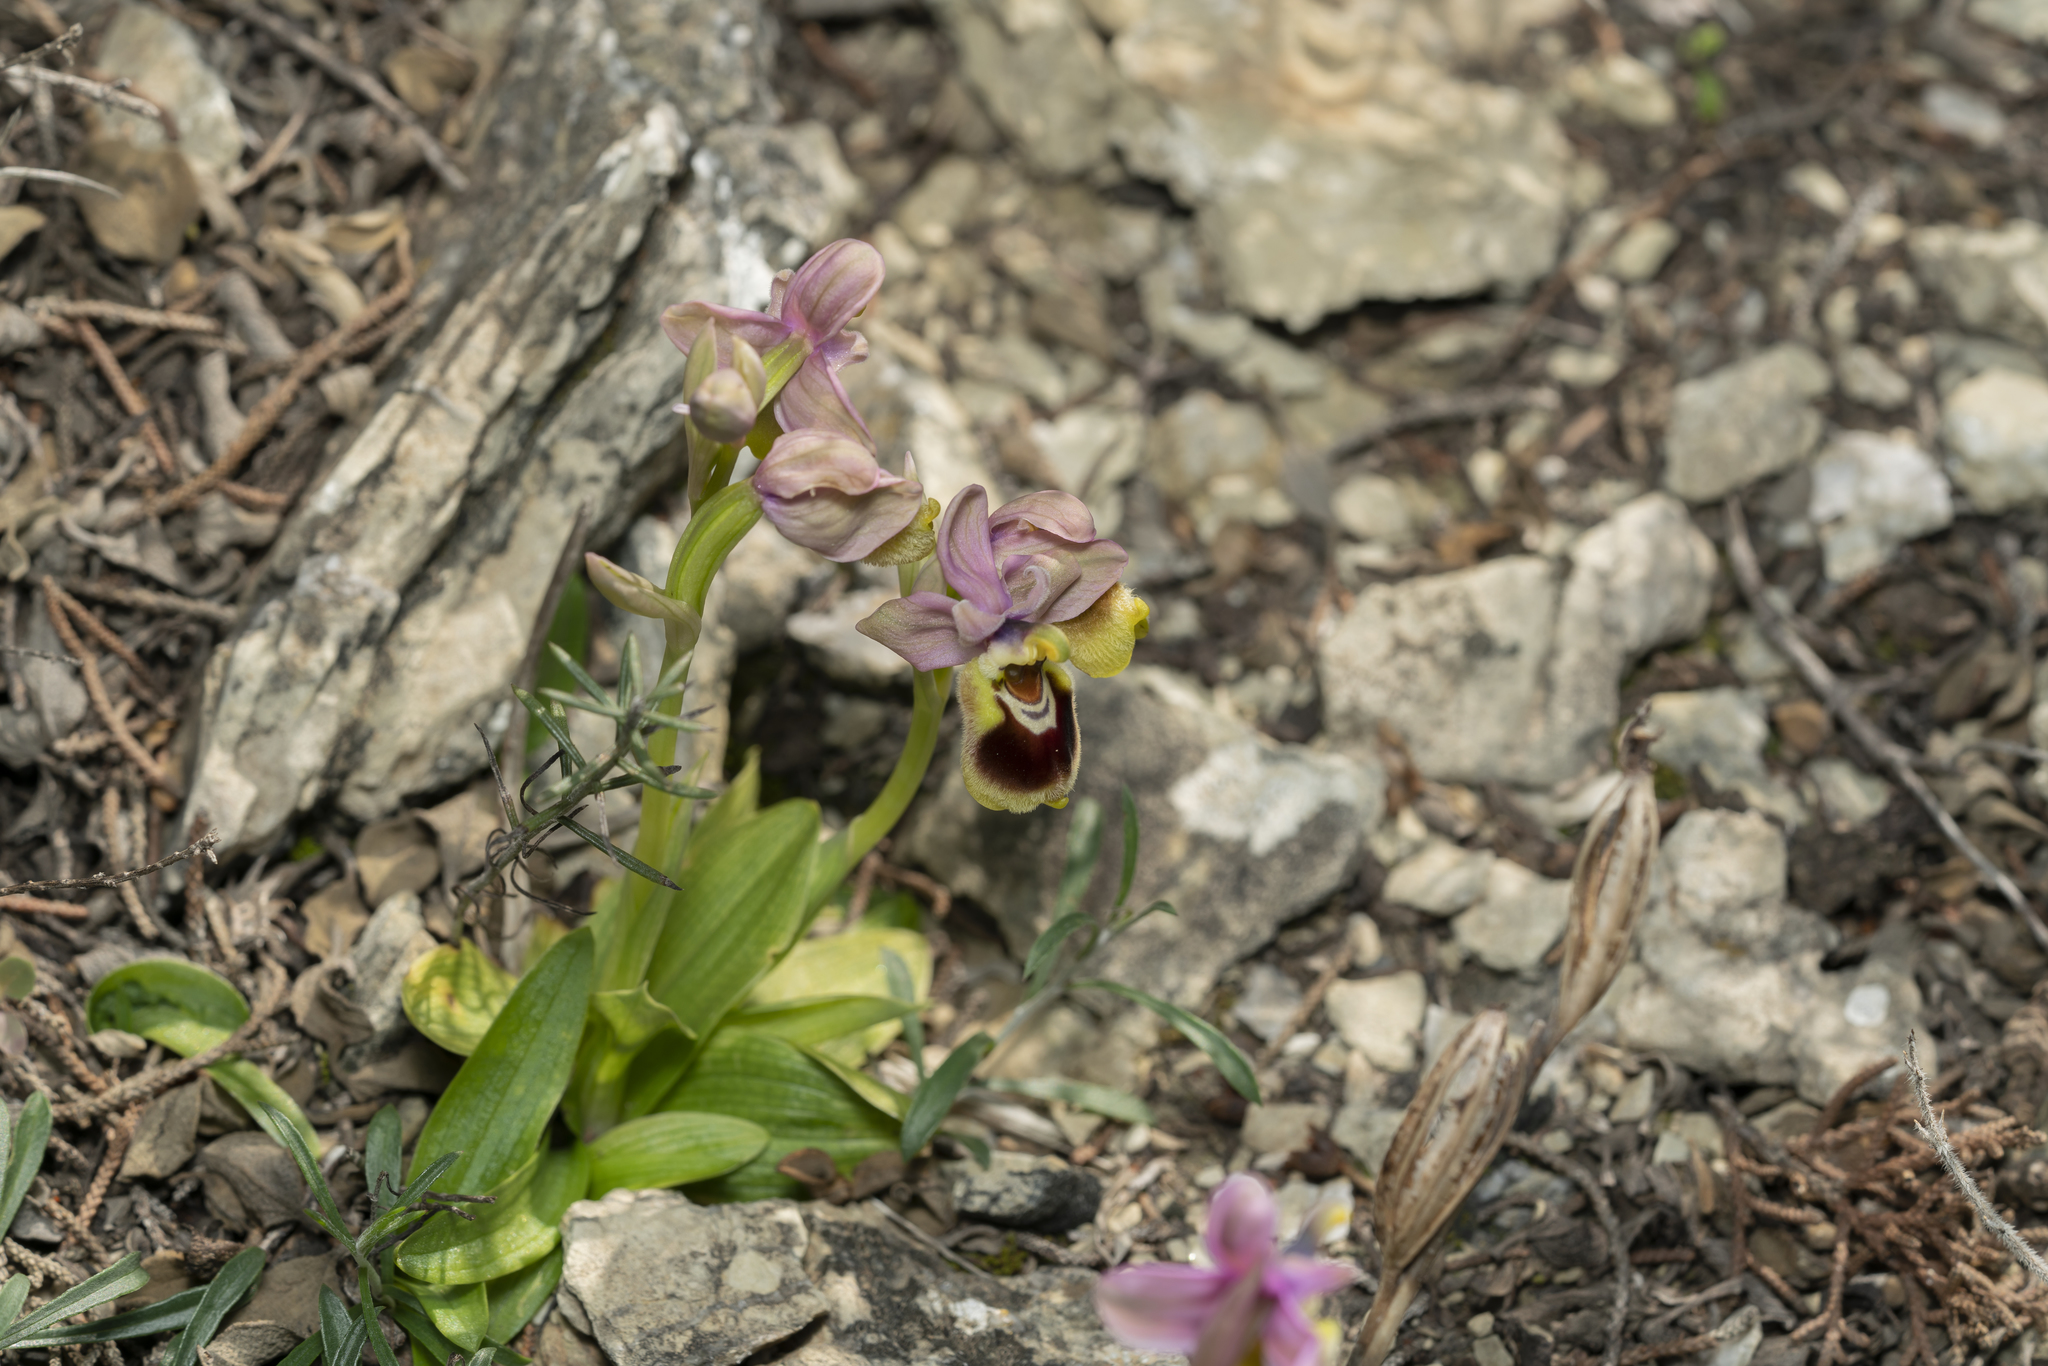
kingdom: Plantae
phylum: Tracheophyta
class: Liliopsida
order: Asparagales
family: Orchidaceae
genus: Ophrys
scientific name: Ophrys tenthredinifera
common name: Sawfly orchid
